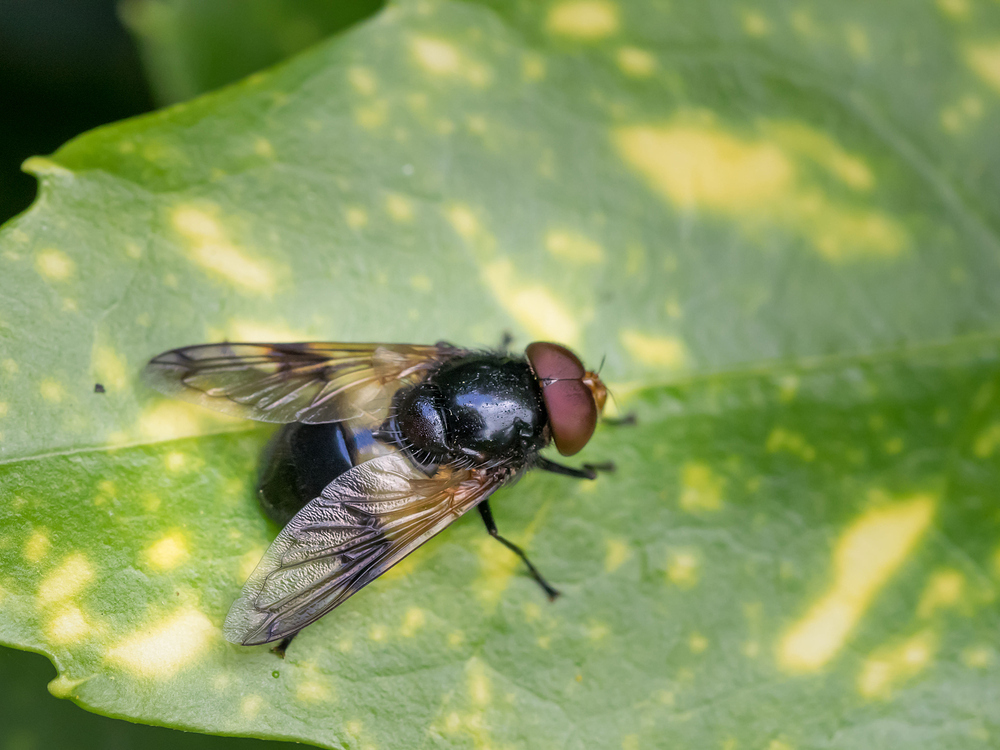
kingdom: Animalia
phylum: Arthropoda
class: Insecta
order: Diptera
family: Syrphidae
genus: Volucella
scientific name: Volucella pellucens
